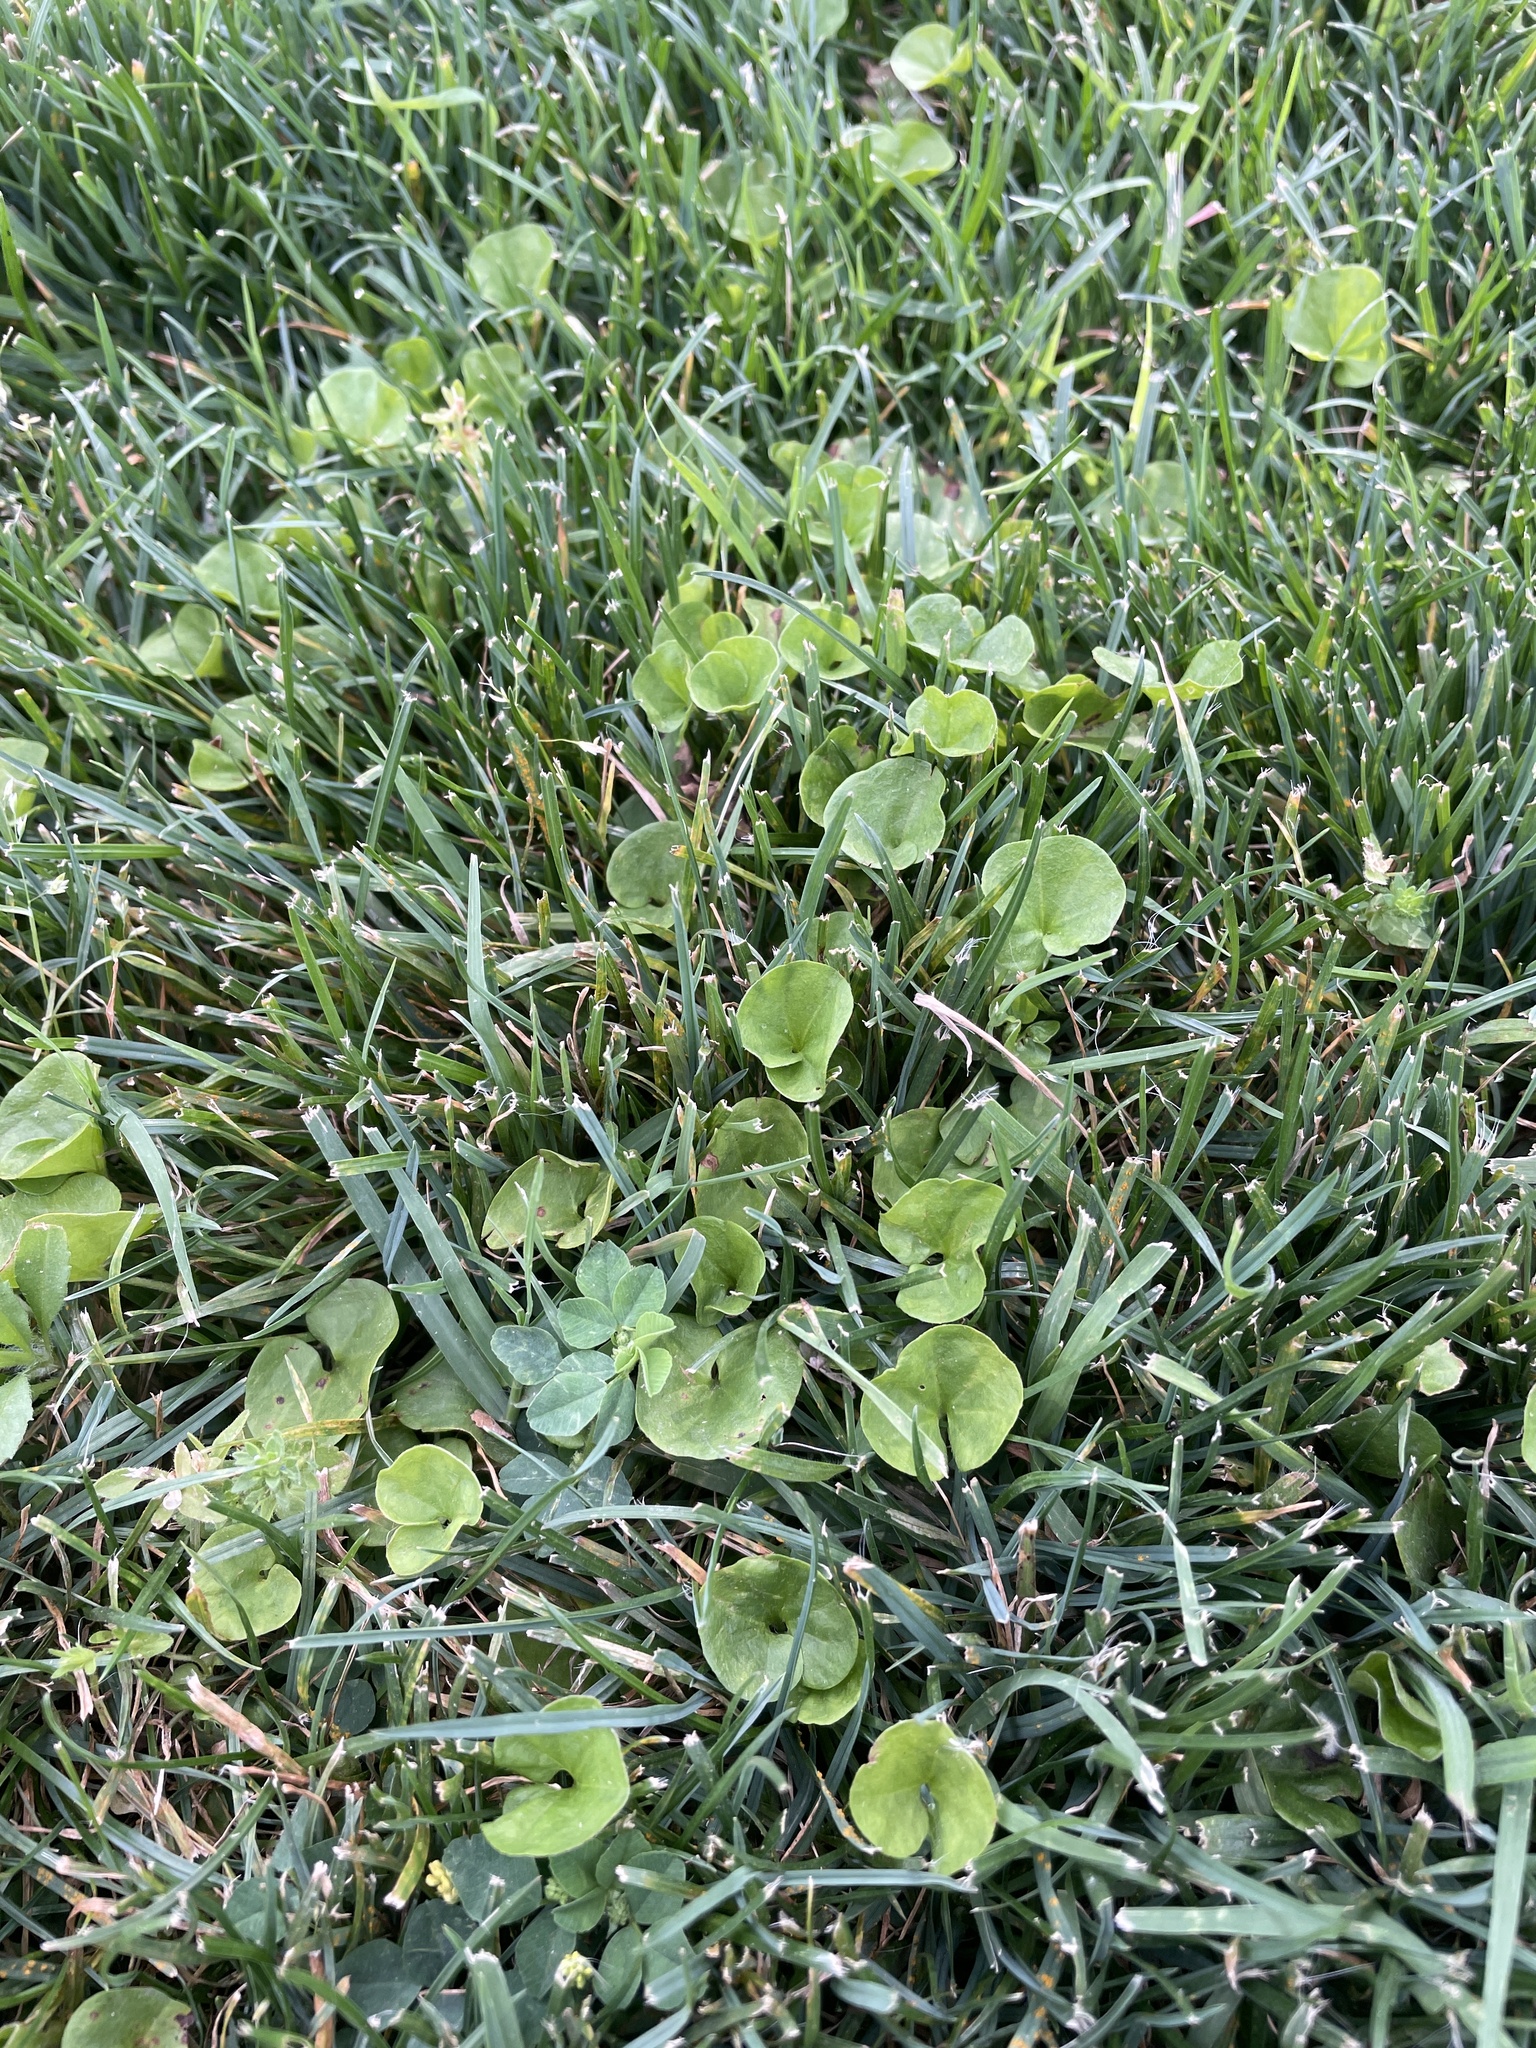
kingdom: Plantae
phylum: Tracheophyta
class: Magnoliopsida
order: Solanales
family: Convolvulaceae
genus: Dichondra
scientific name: Dichondra carolinensis
